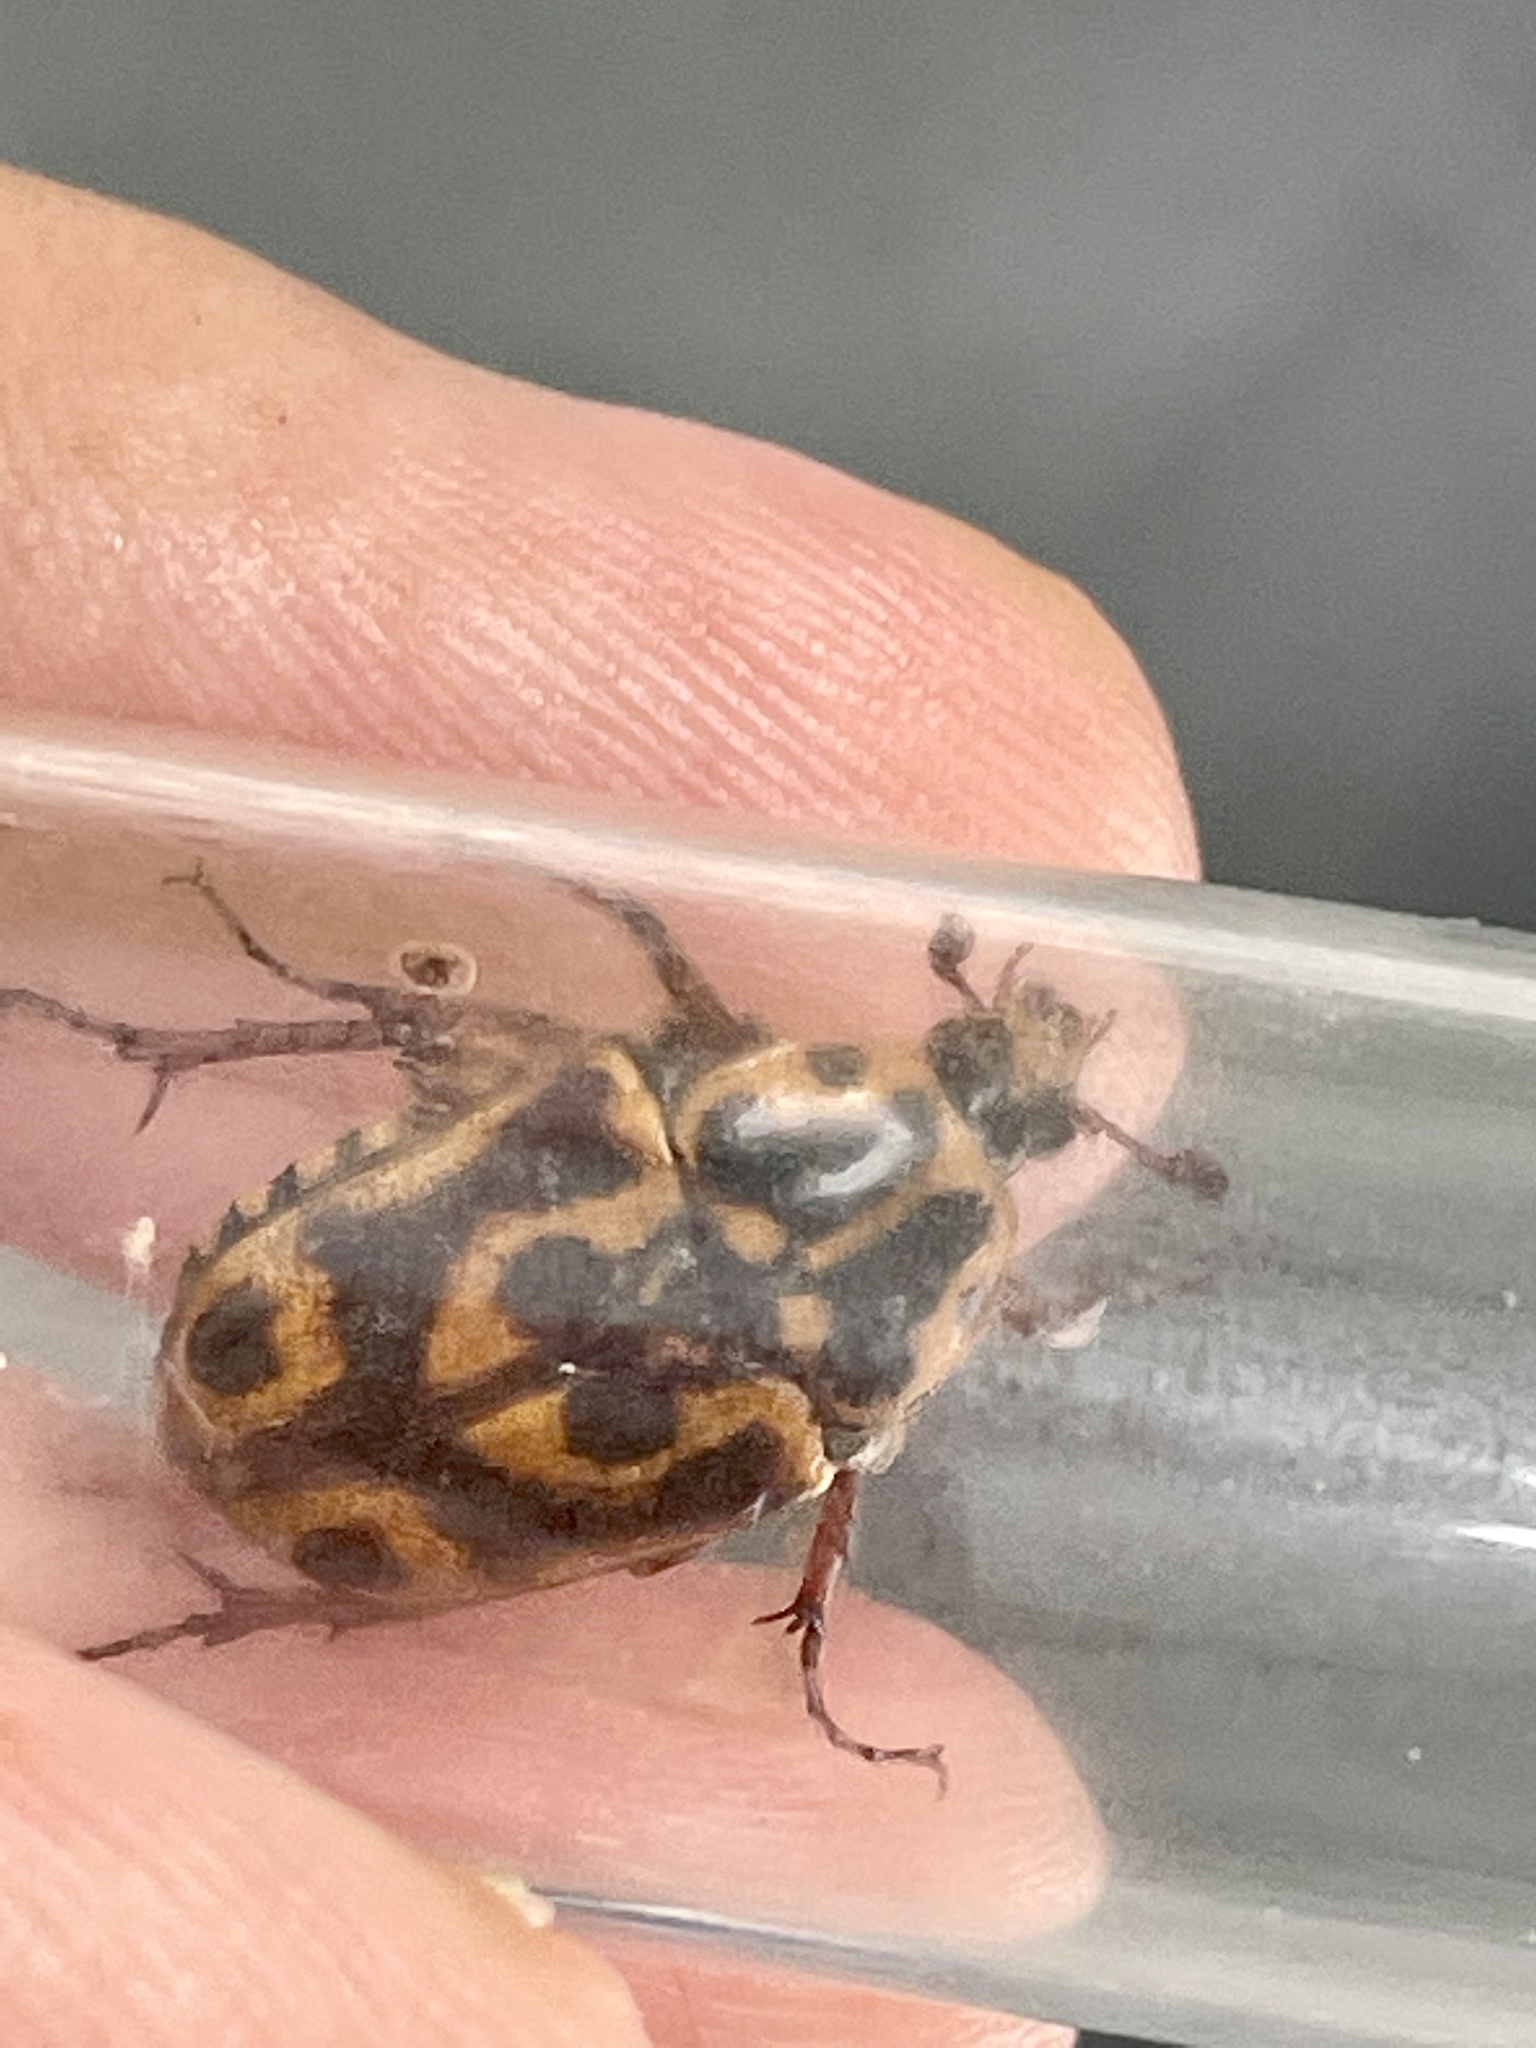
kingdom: Animalia
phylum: Arthropoda
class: Insecta
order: Coleoptera
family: Scarabaeidae
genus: Lyraphora
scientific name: Lyraphora obliquata
